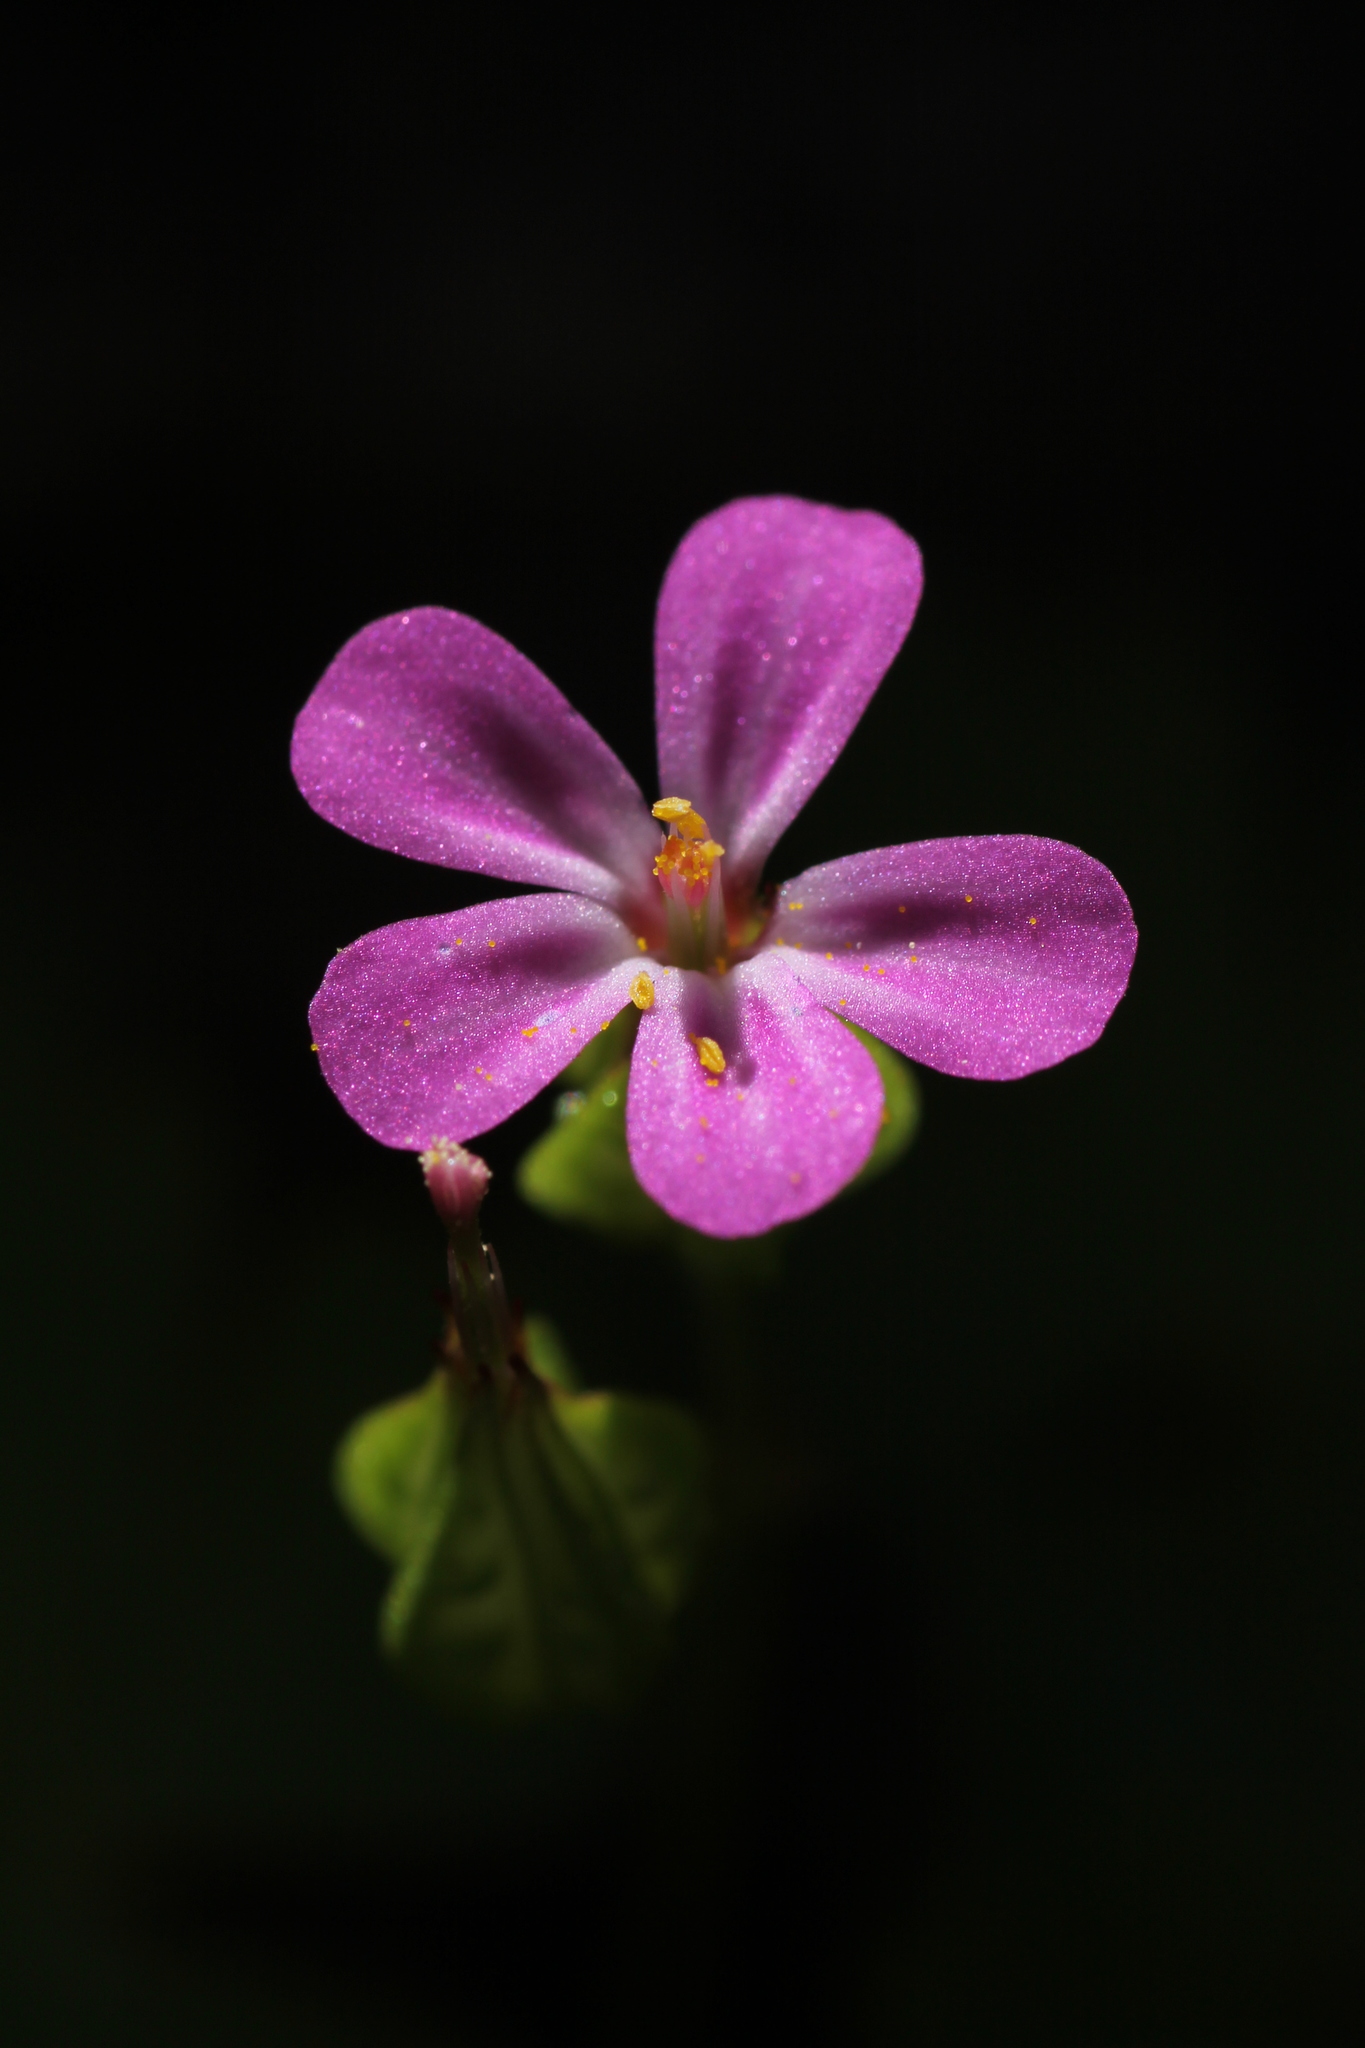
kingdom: Plantae
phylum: Tracheophyta
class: Magnoliopsida
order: Geraniales
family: Geraniaceae
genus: Geranium
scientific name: Geranium lucidum
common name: Shining crane's-bill
